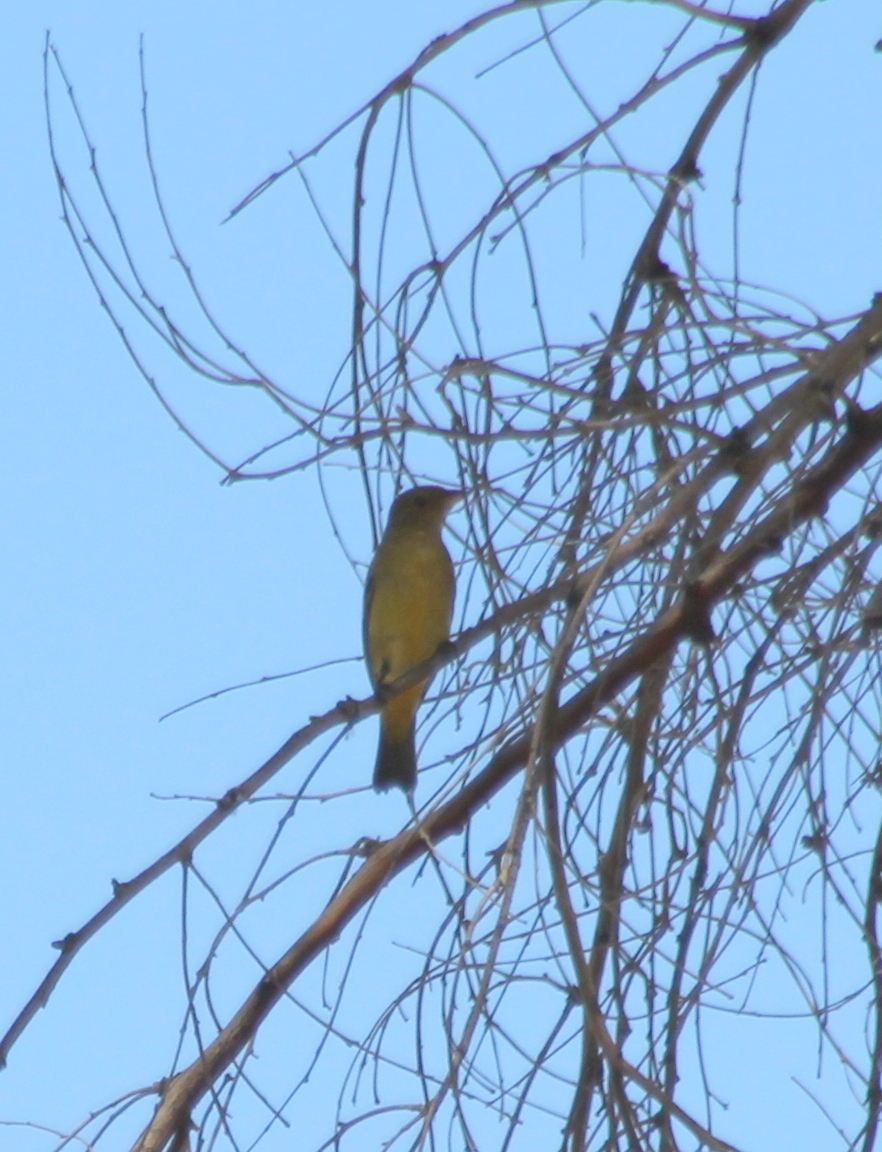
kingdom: Animalia
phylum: Chordata
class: Aves
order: Passeriformes
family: Cardinalidae
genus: Piranga
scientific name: Piranga ludoviciana
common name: Western tanager
